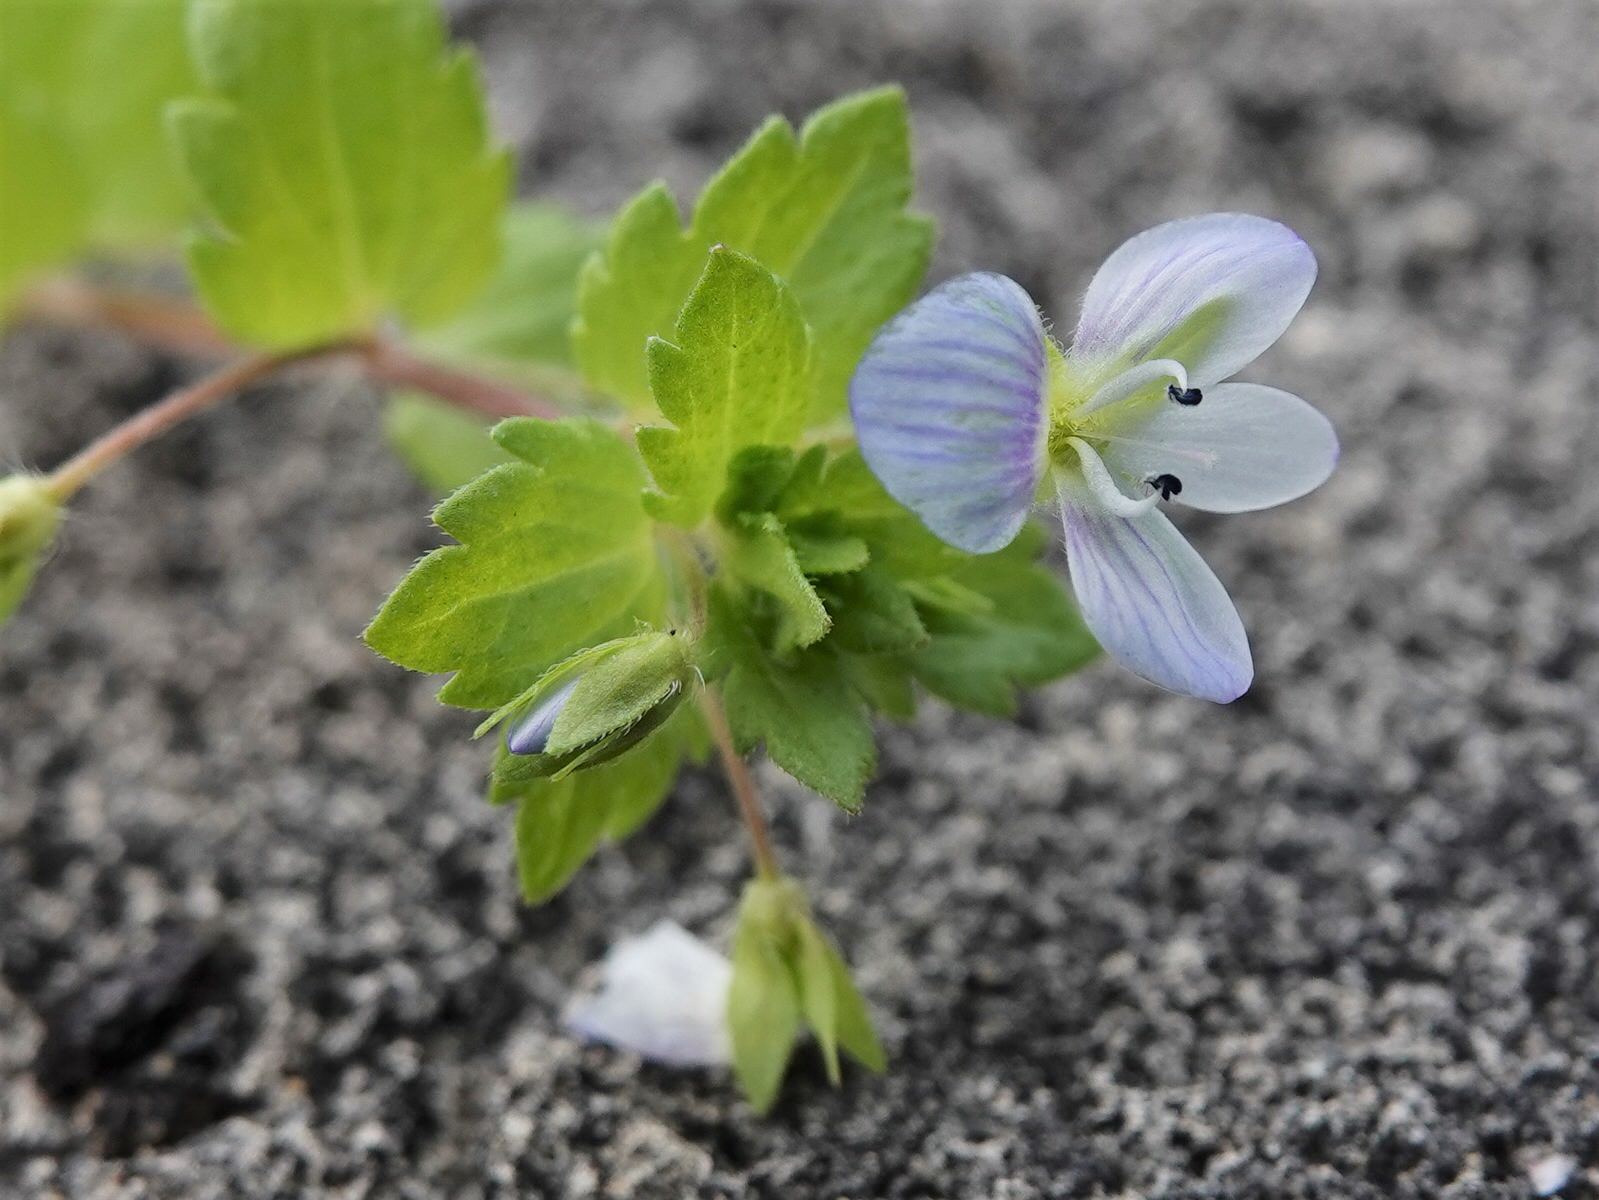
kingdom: Plantae
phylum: Tracheophyta
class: Magnoliopsida
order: Lamiales
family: Plantaginaceae
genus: Veronica
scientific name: Veronica persica
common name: Common field-speedwell
